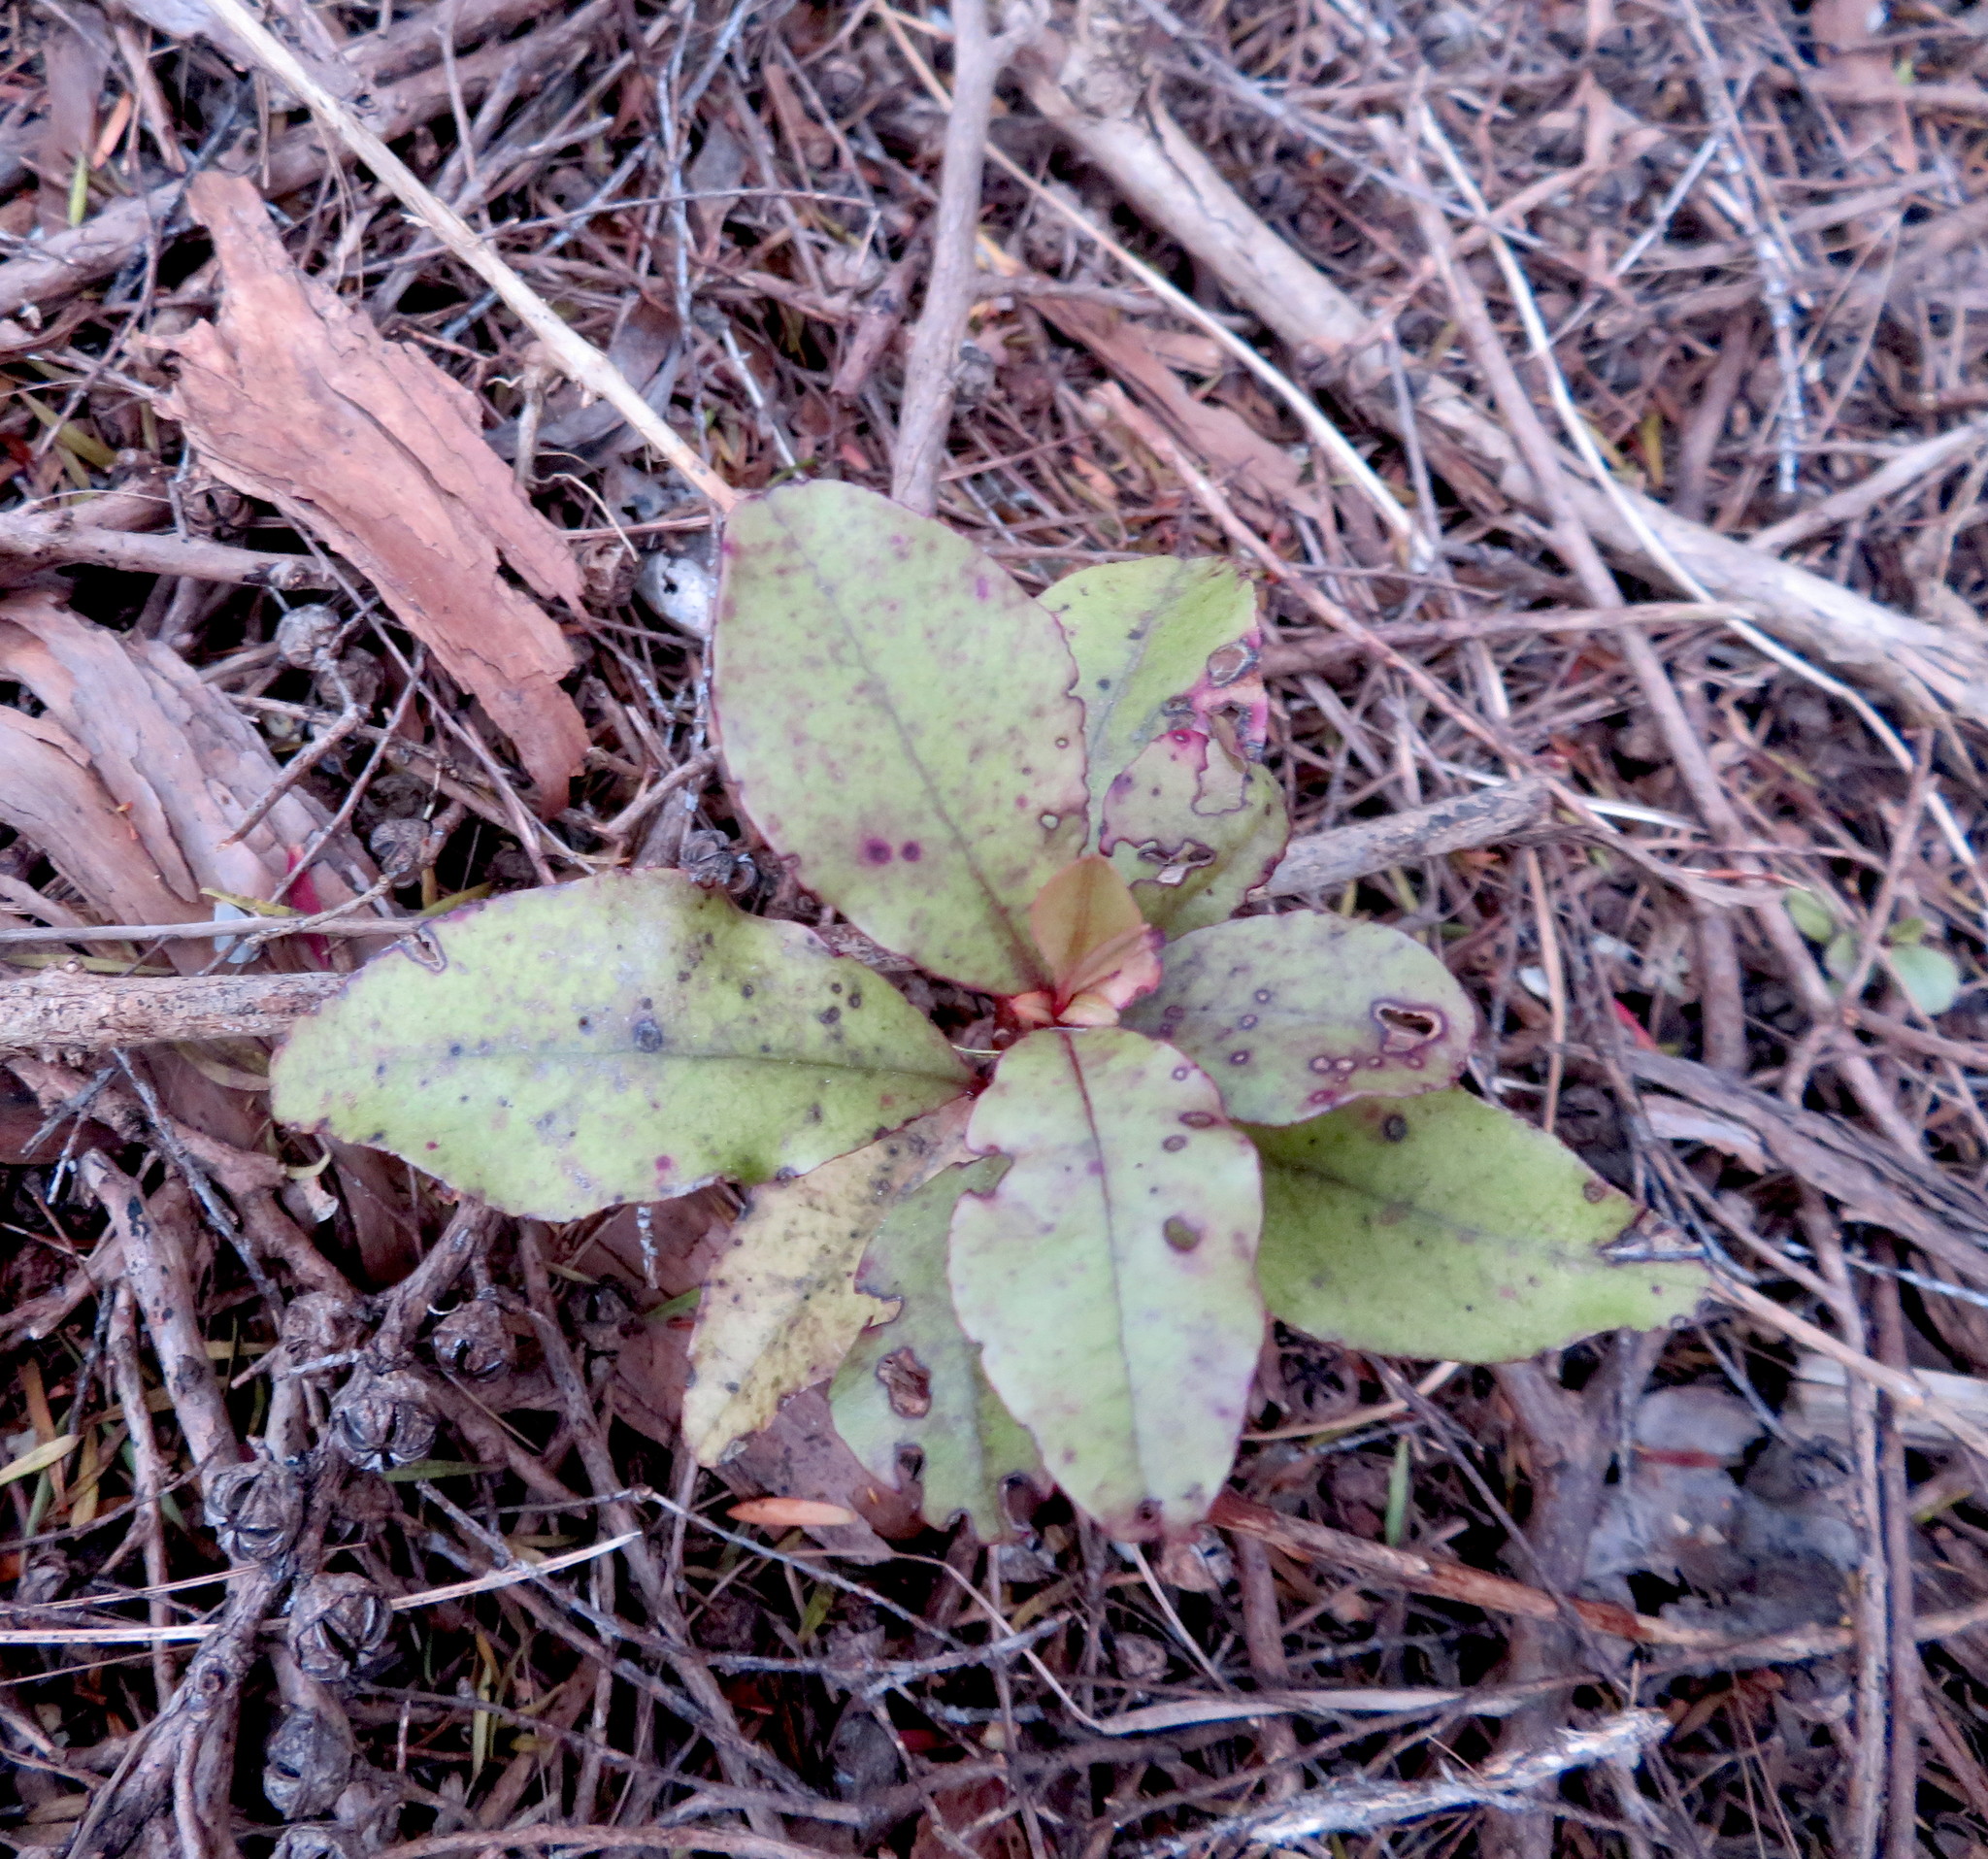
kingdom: Plantae
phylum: Tracheophyta
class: Magnoliopsida
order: Ericales
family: Primulaceae
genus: Myrsine
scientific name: Myrsine australis
